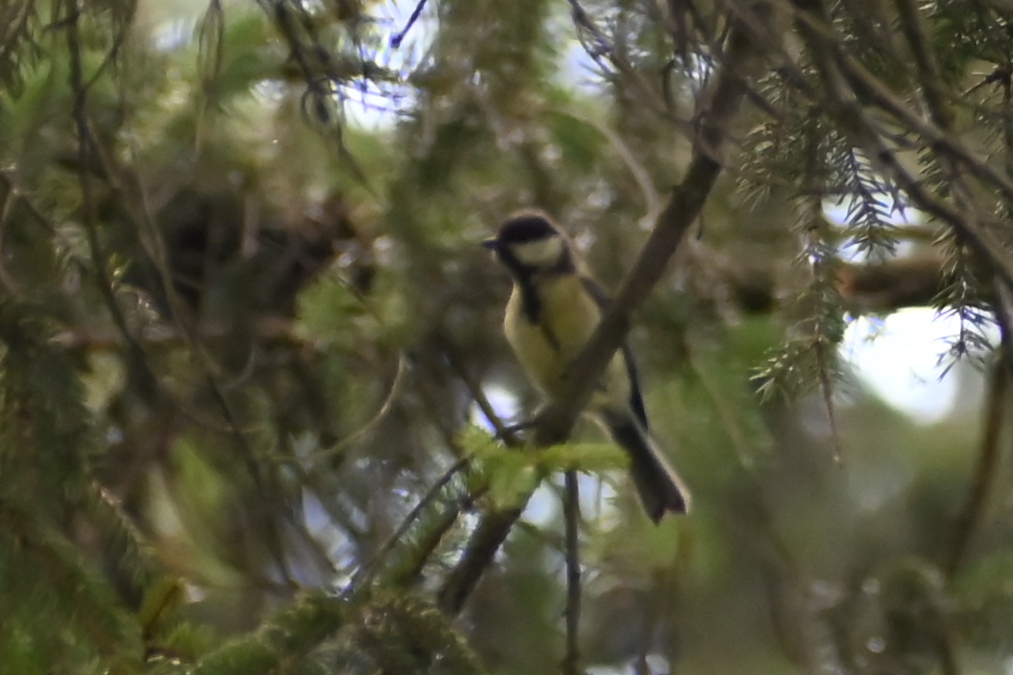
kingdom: Animalia
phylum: Chordata
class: Aves
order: Passeriformes
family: Paridae
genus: Parus
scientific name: Parus major
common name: Great tit
